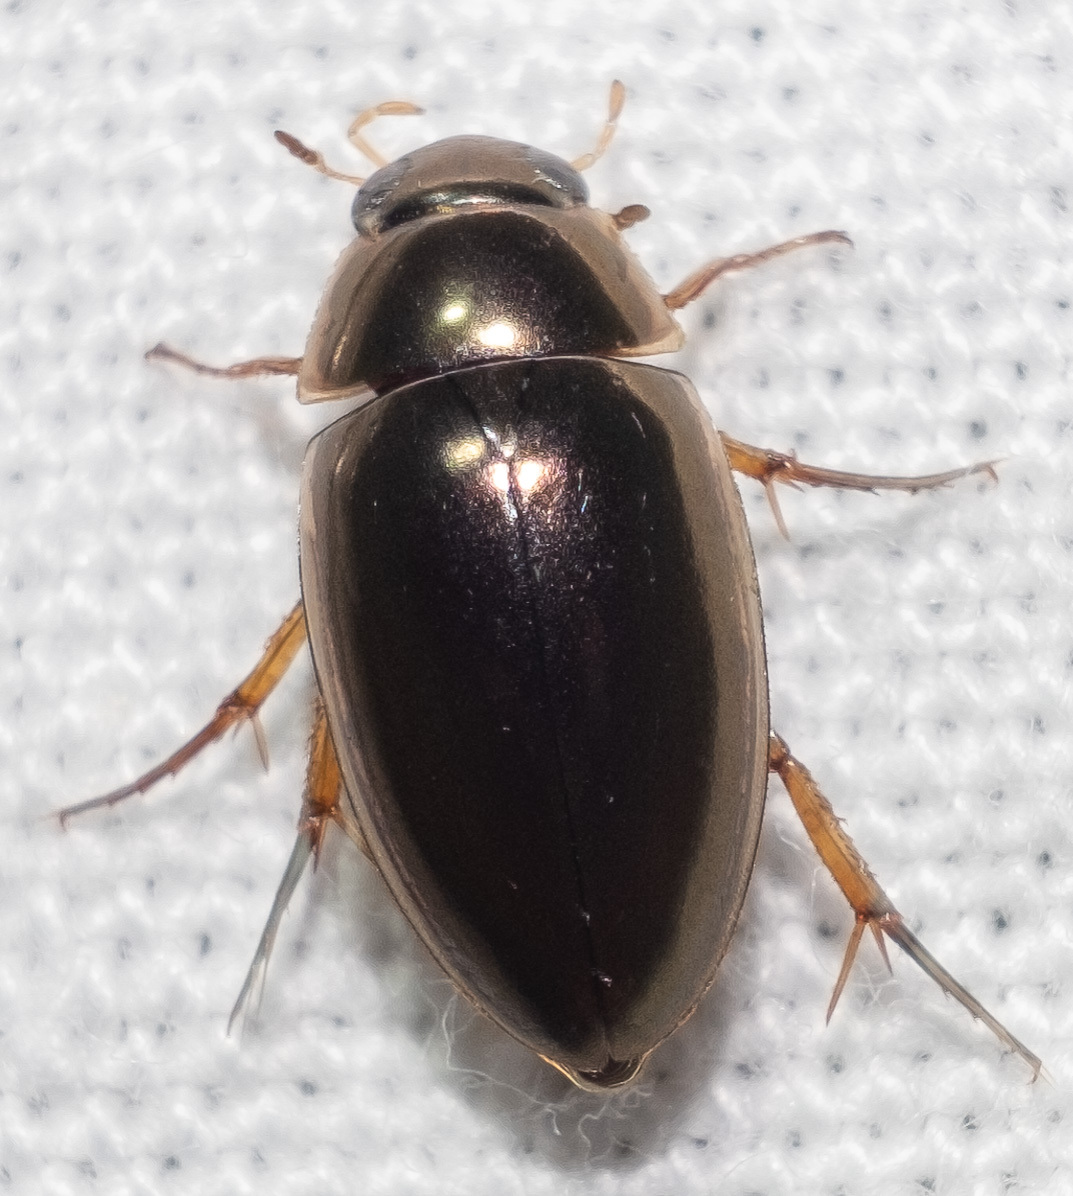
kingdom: Animalia
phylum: Arthropoda
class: Insecta
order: Coleoptera
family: Hydrophilidae
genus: Tropisternus
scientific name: Tropisternus lateralis
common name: Lateral-banded water scavenger beetle
